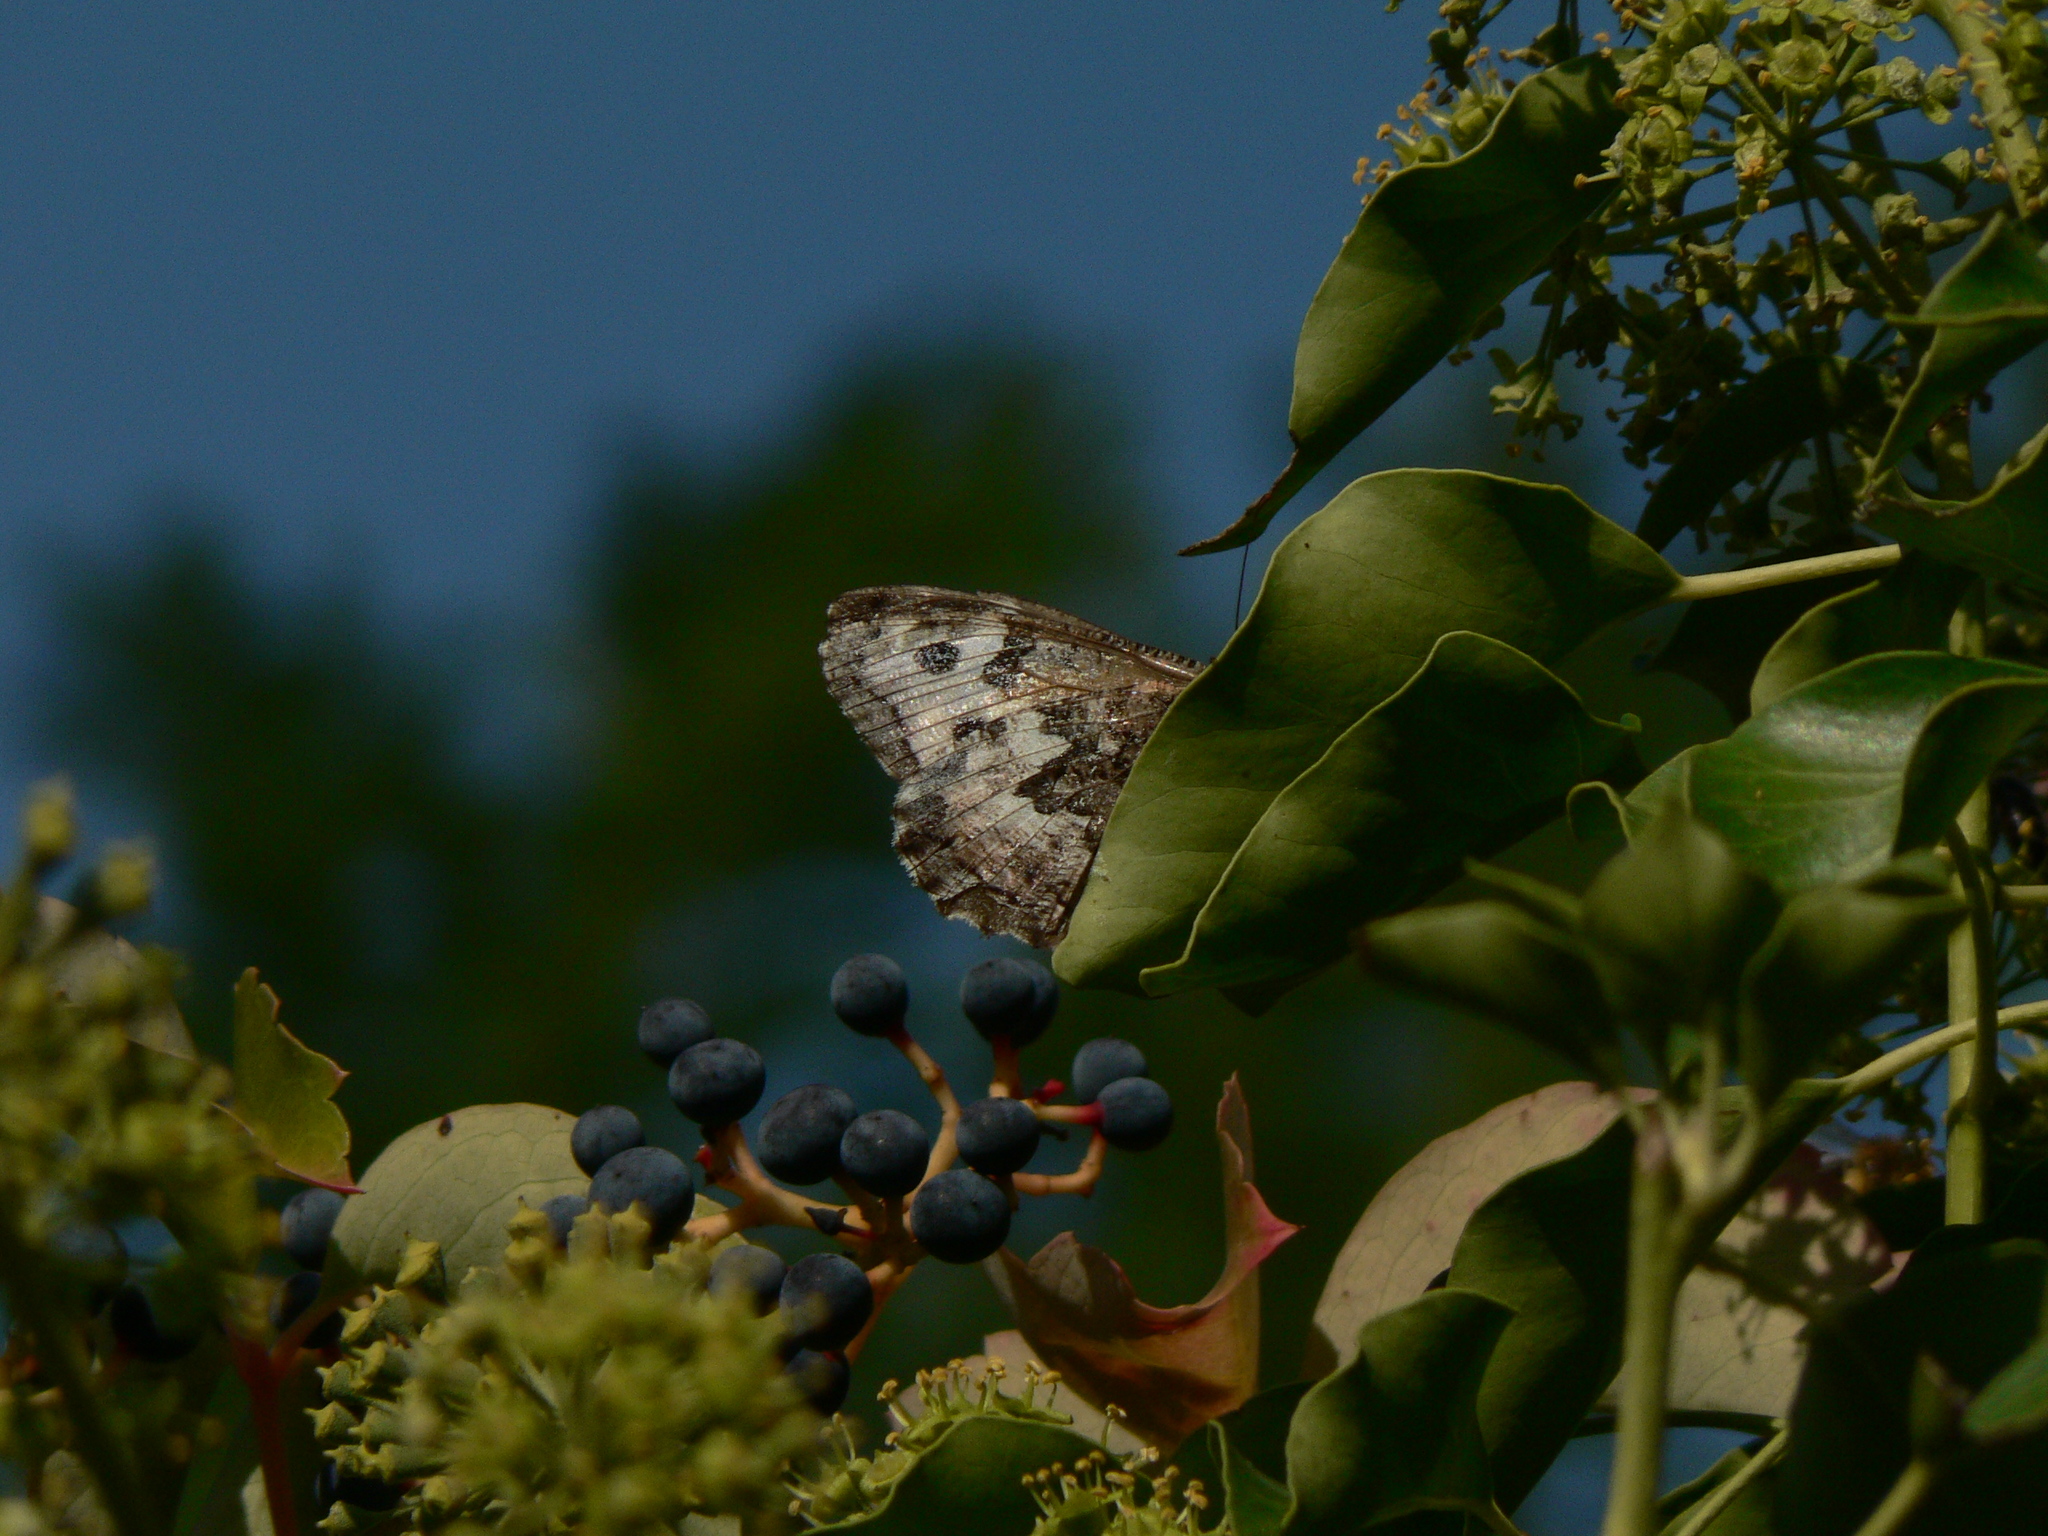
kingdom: Animalia
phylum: Arthropoda
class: Insecta
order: Lepidoptera
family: Nymphalidae
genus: Hipparchia
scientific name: Hipparchia semele
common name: Grayling
